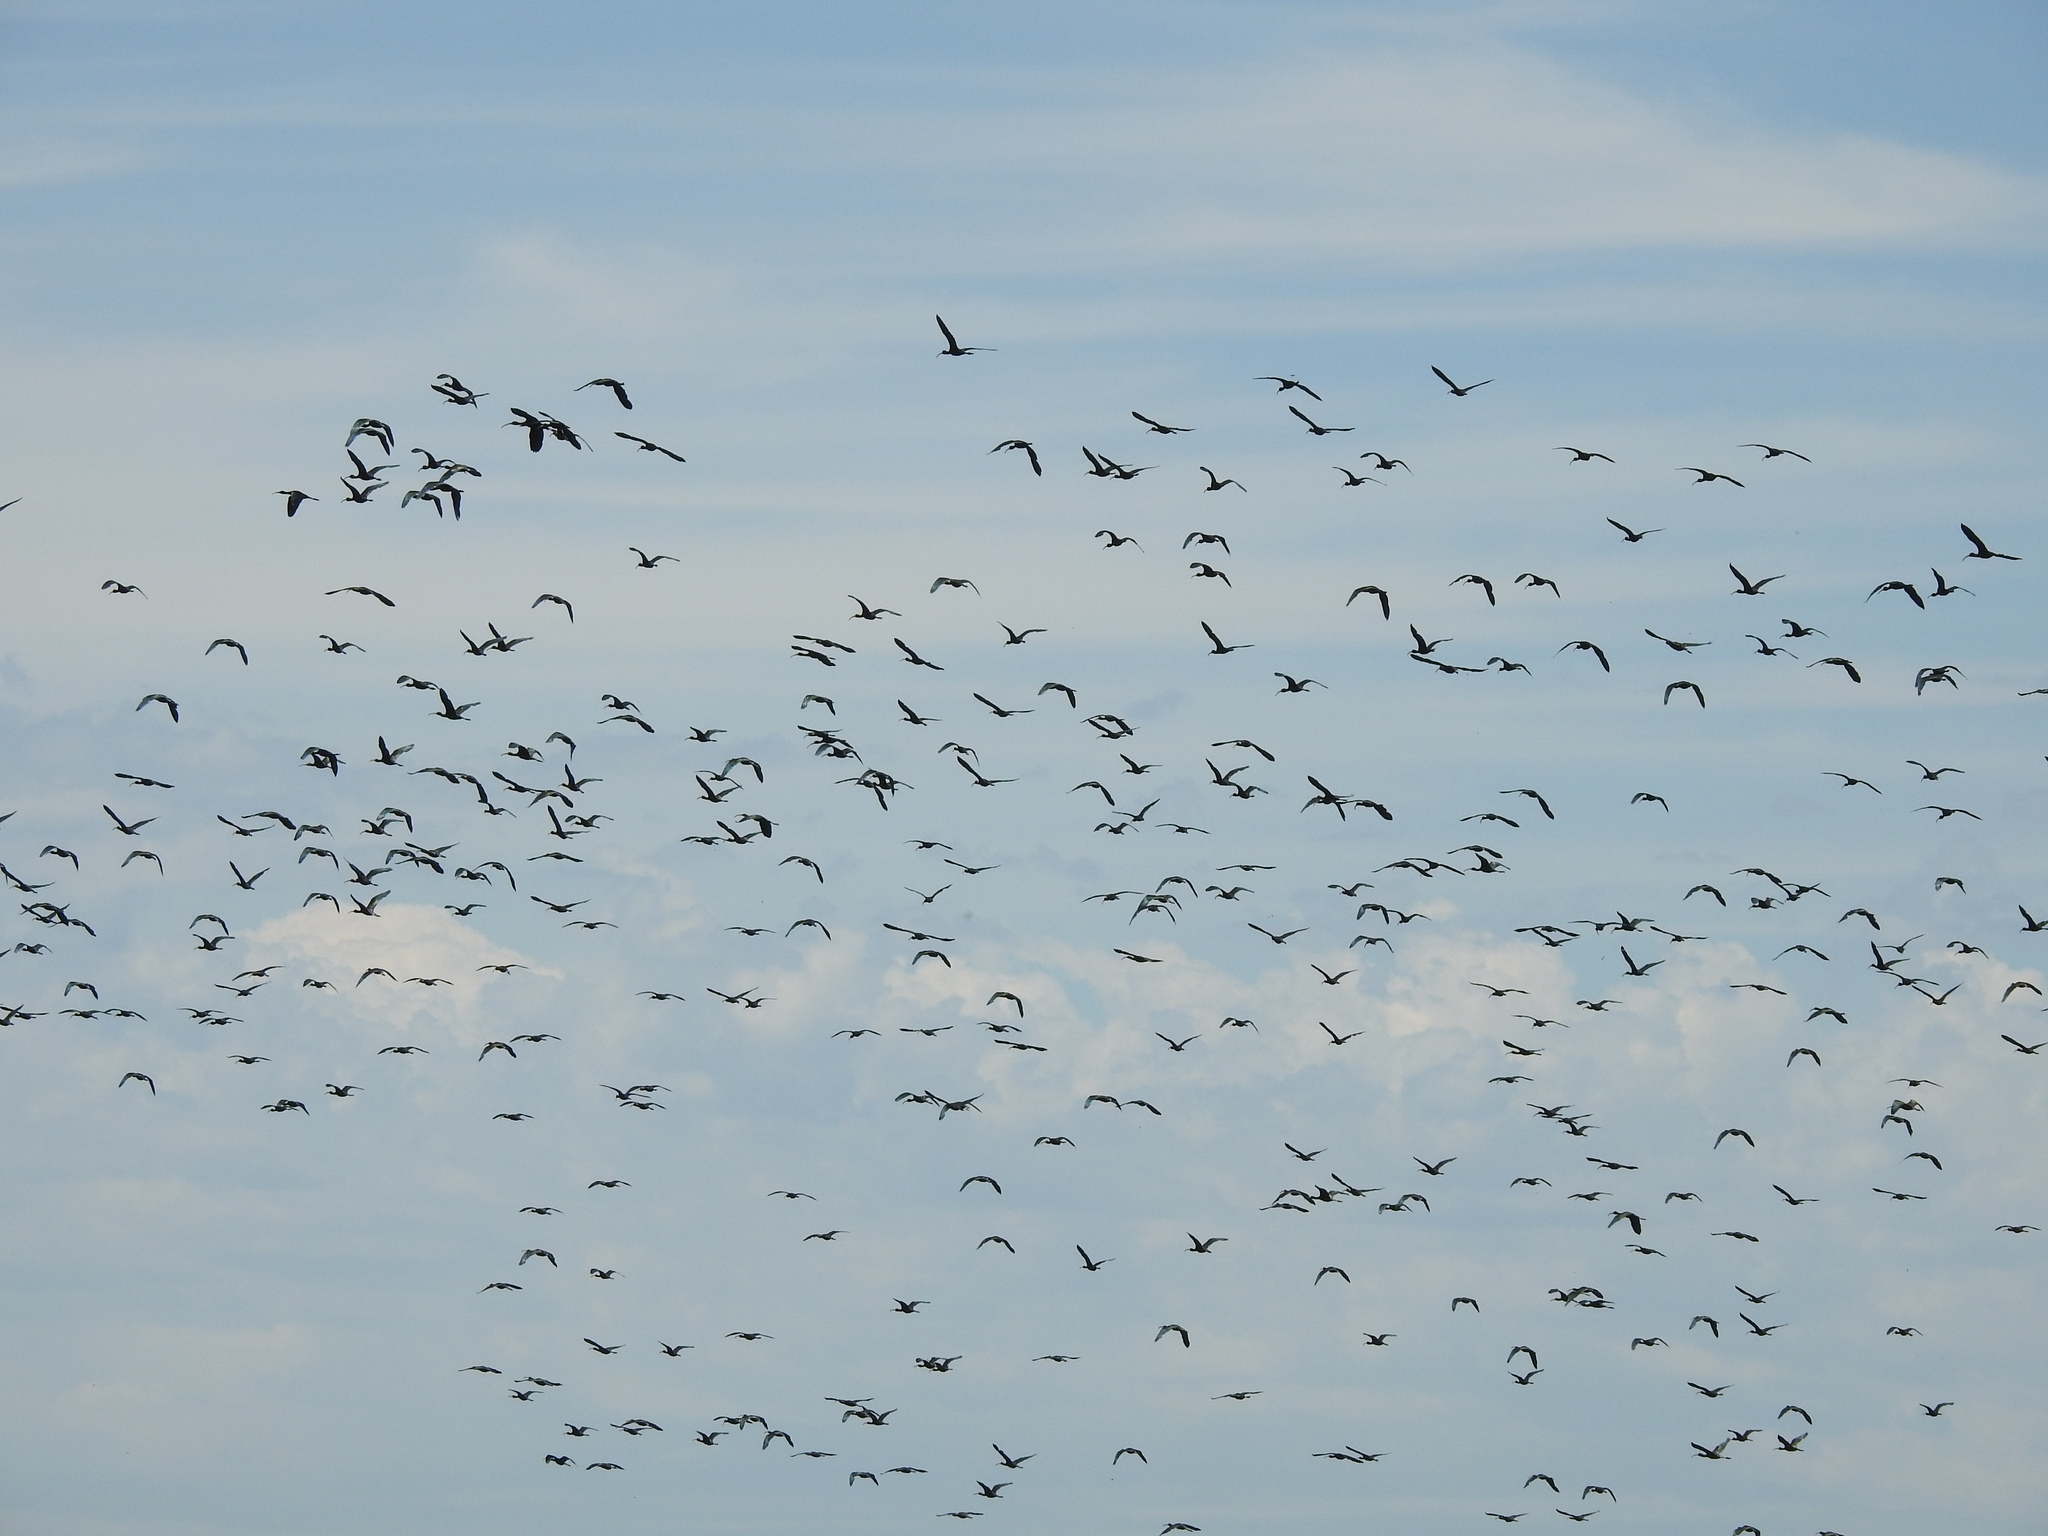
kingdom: Animalia
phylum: Chordata
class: Aves
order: Pelecaniformes
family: Threskiornithidae
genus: Plegadis
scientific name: Plegadis chihi
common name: White-faced ibis
